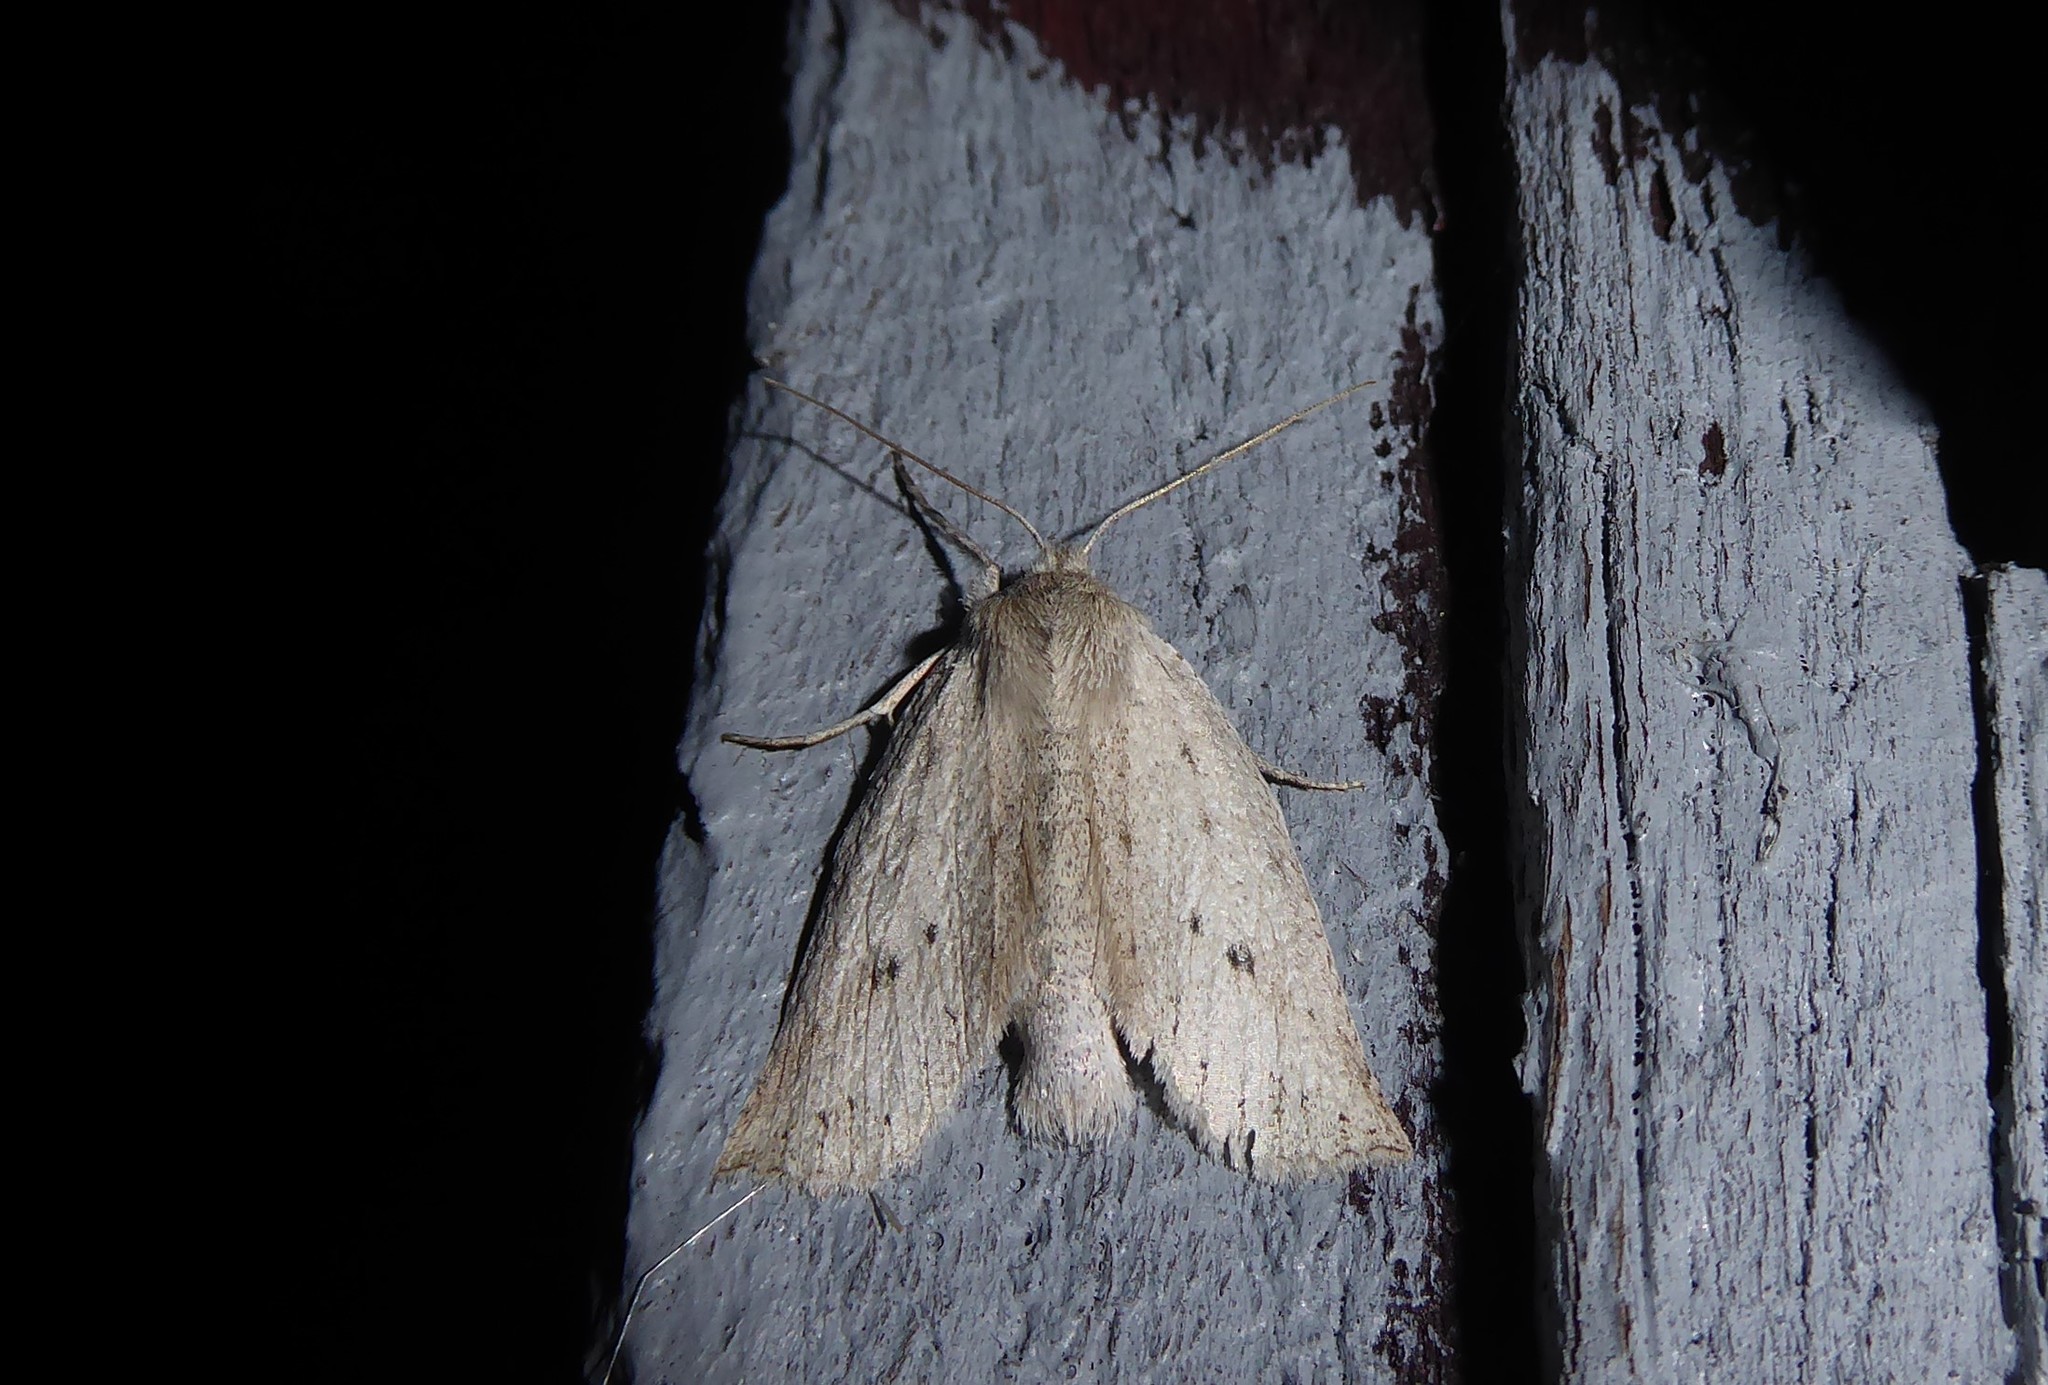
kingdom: Animalia
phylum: Arthropoda
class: Insecta
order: Lepidoptera
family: Geometridae
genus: Declana
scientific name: Declana leptomera
